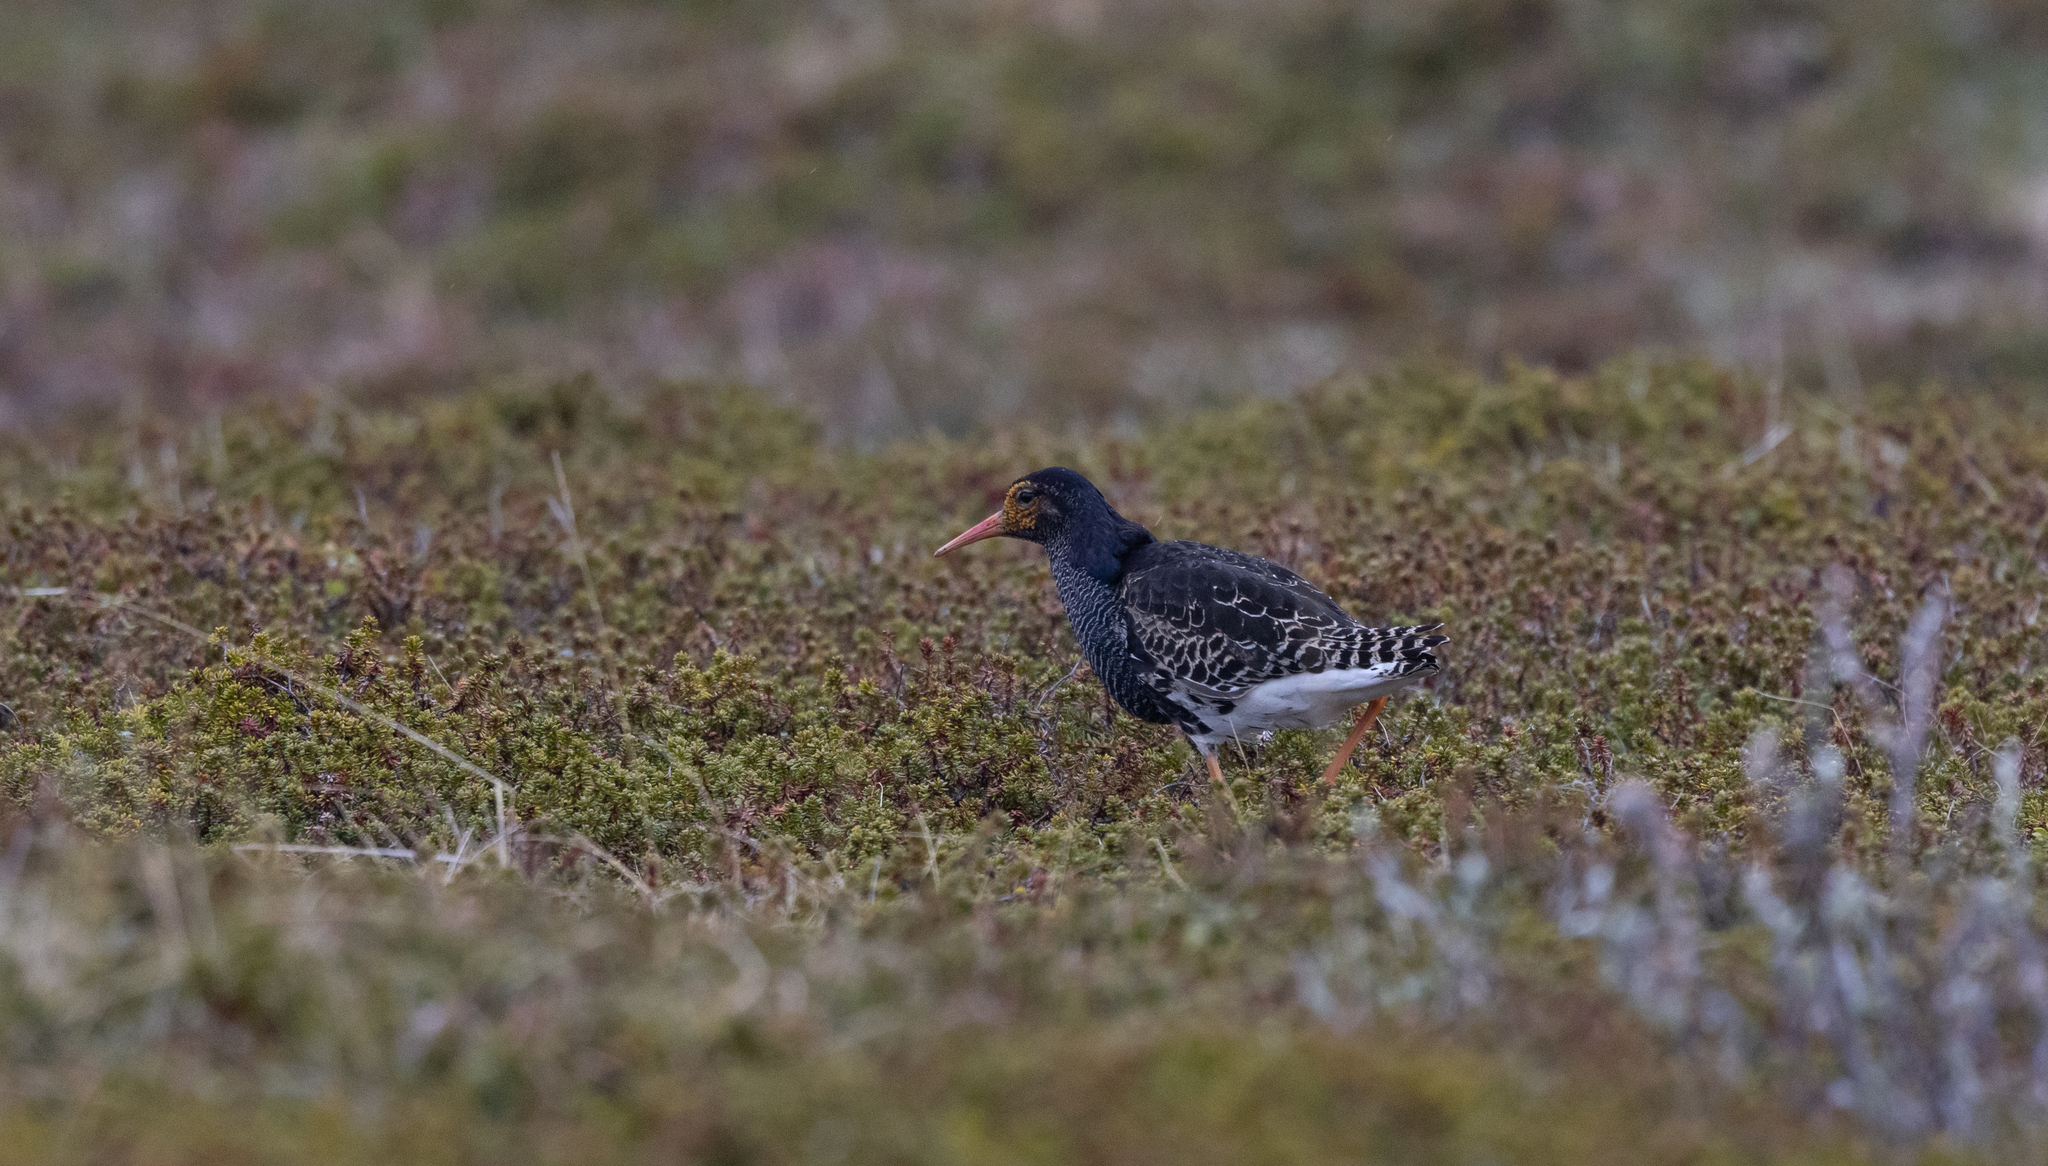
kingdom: Animalia
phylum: Chordata
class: Aves
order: Charadriiformes
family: Scolopacidae
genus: Calidris
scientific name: Calidris pugnax
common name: Ruff
